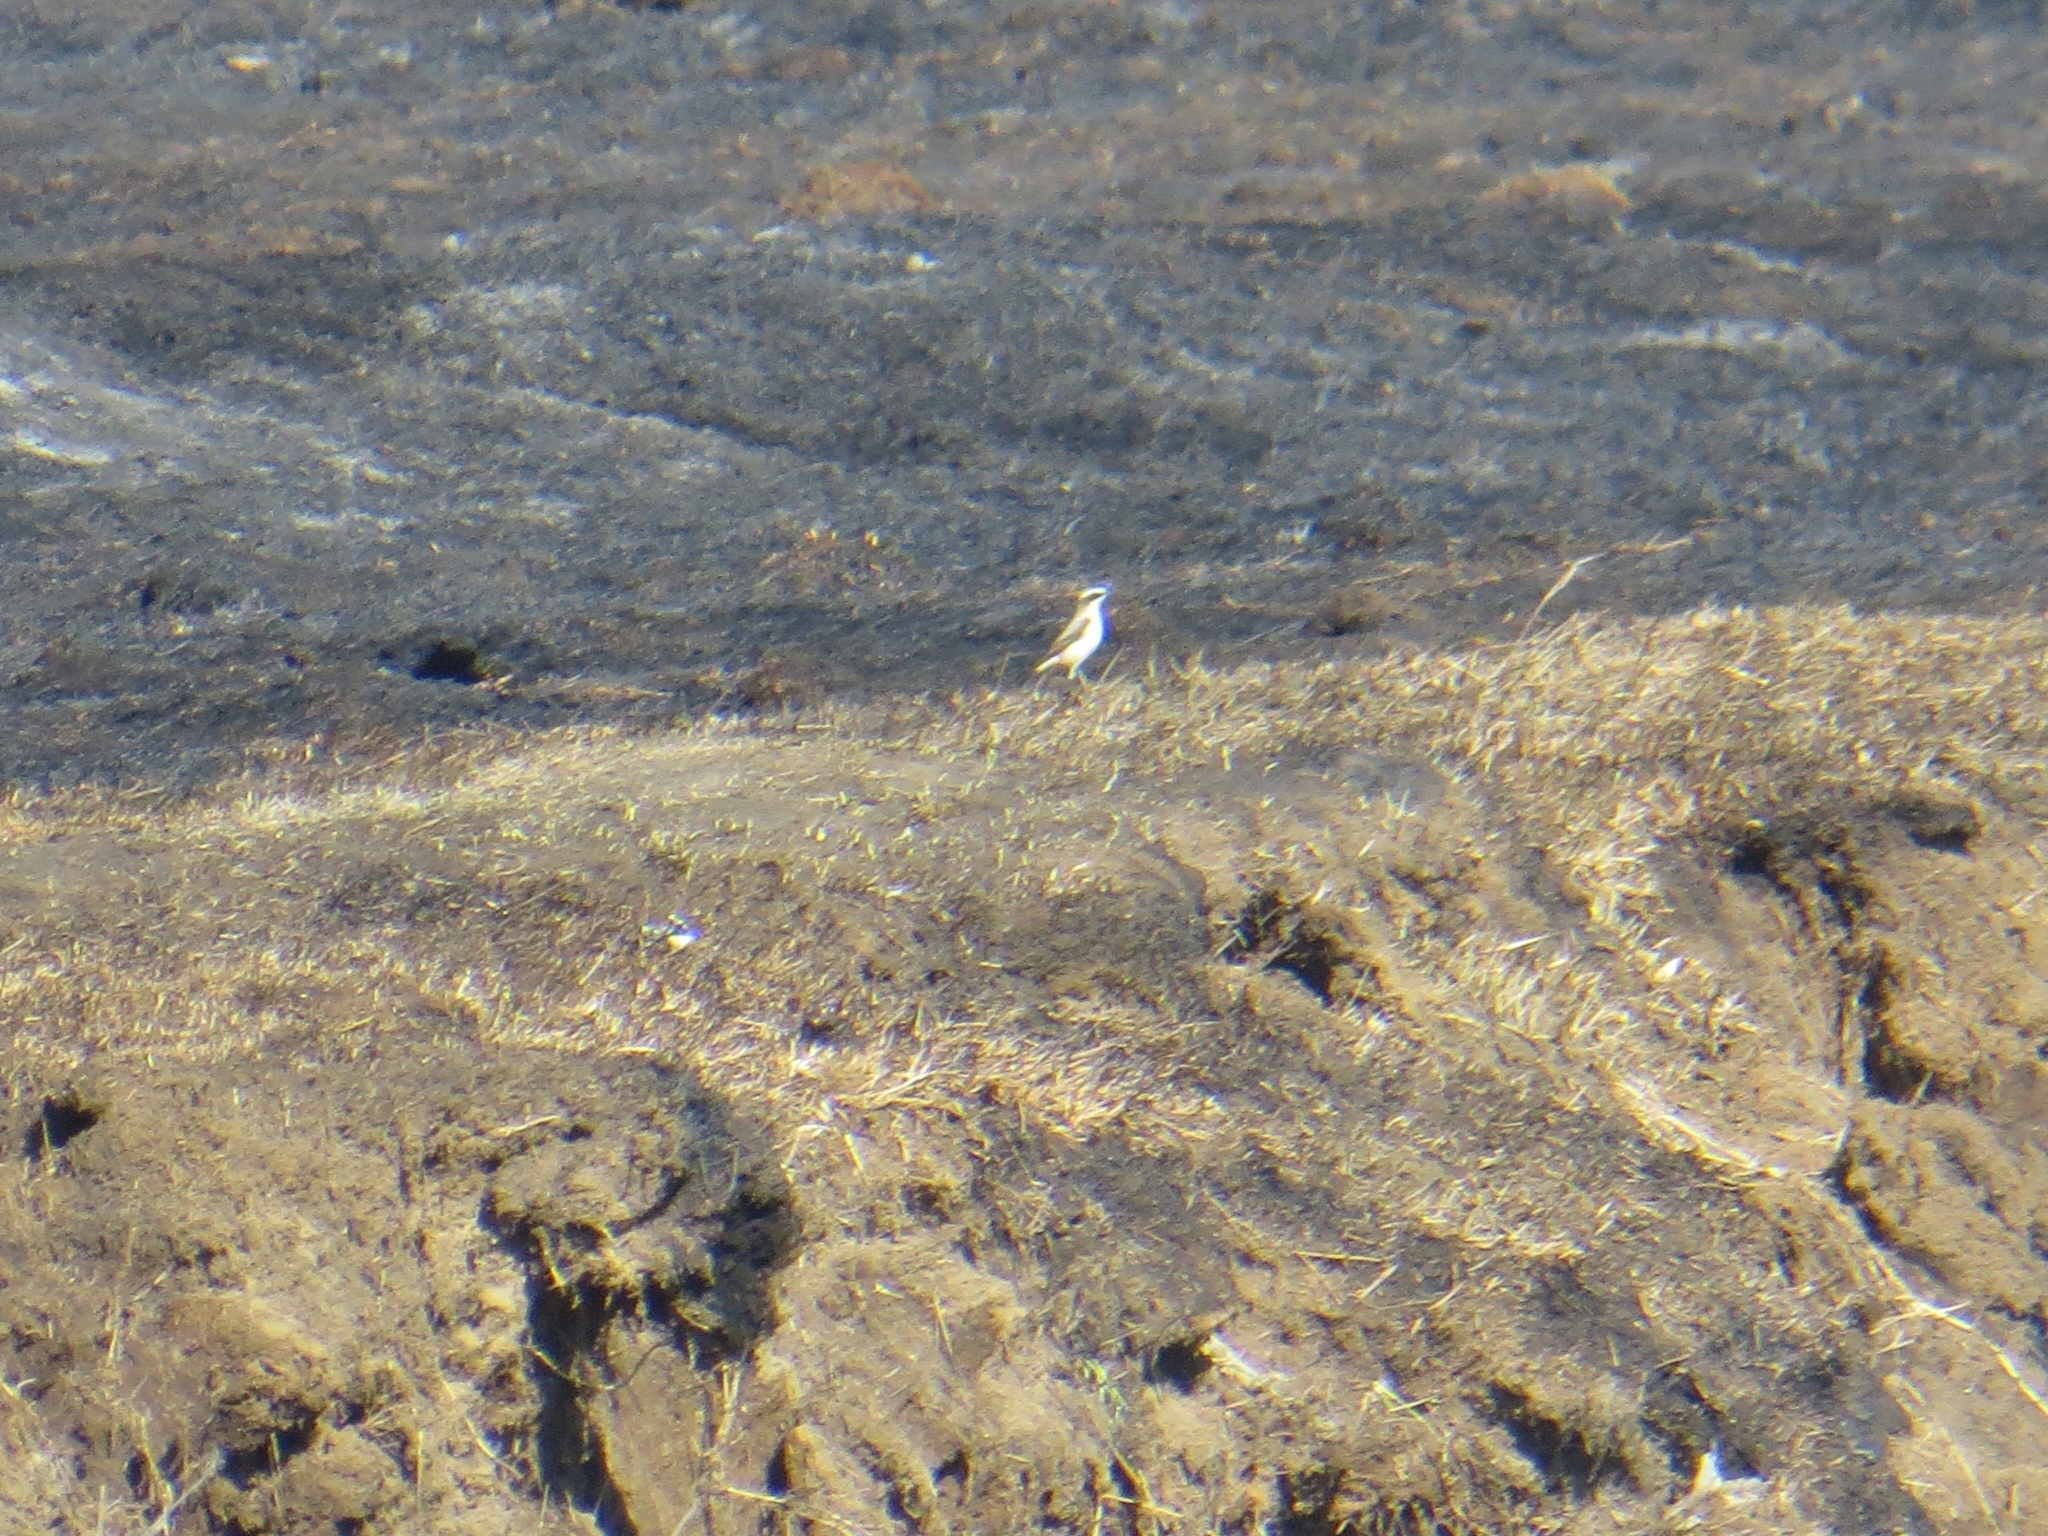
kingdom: Animalia
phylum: Chordata
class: Aves
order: Passeriformes
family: Muscicapidae
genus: Oenanthe
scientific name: Oenanthe oenanthe
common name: Northern wheatear
